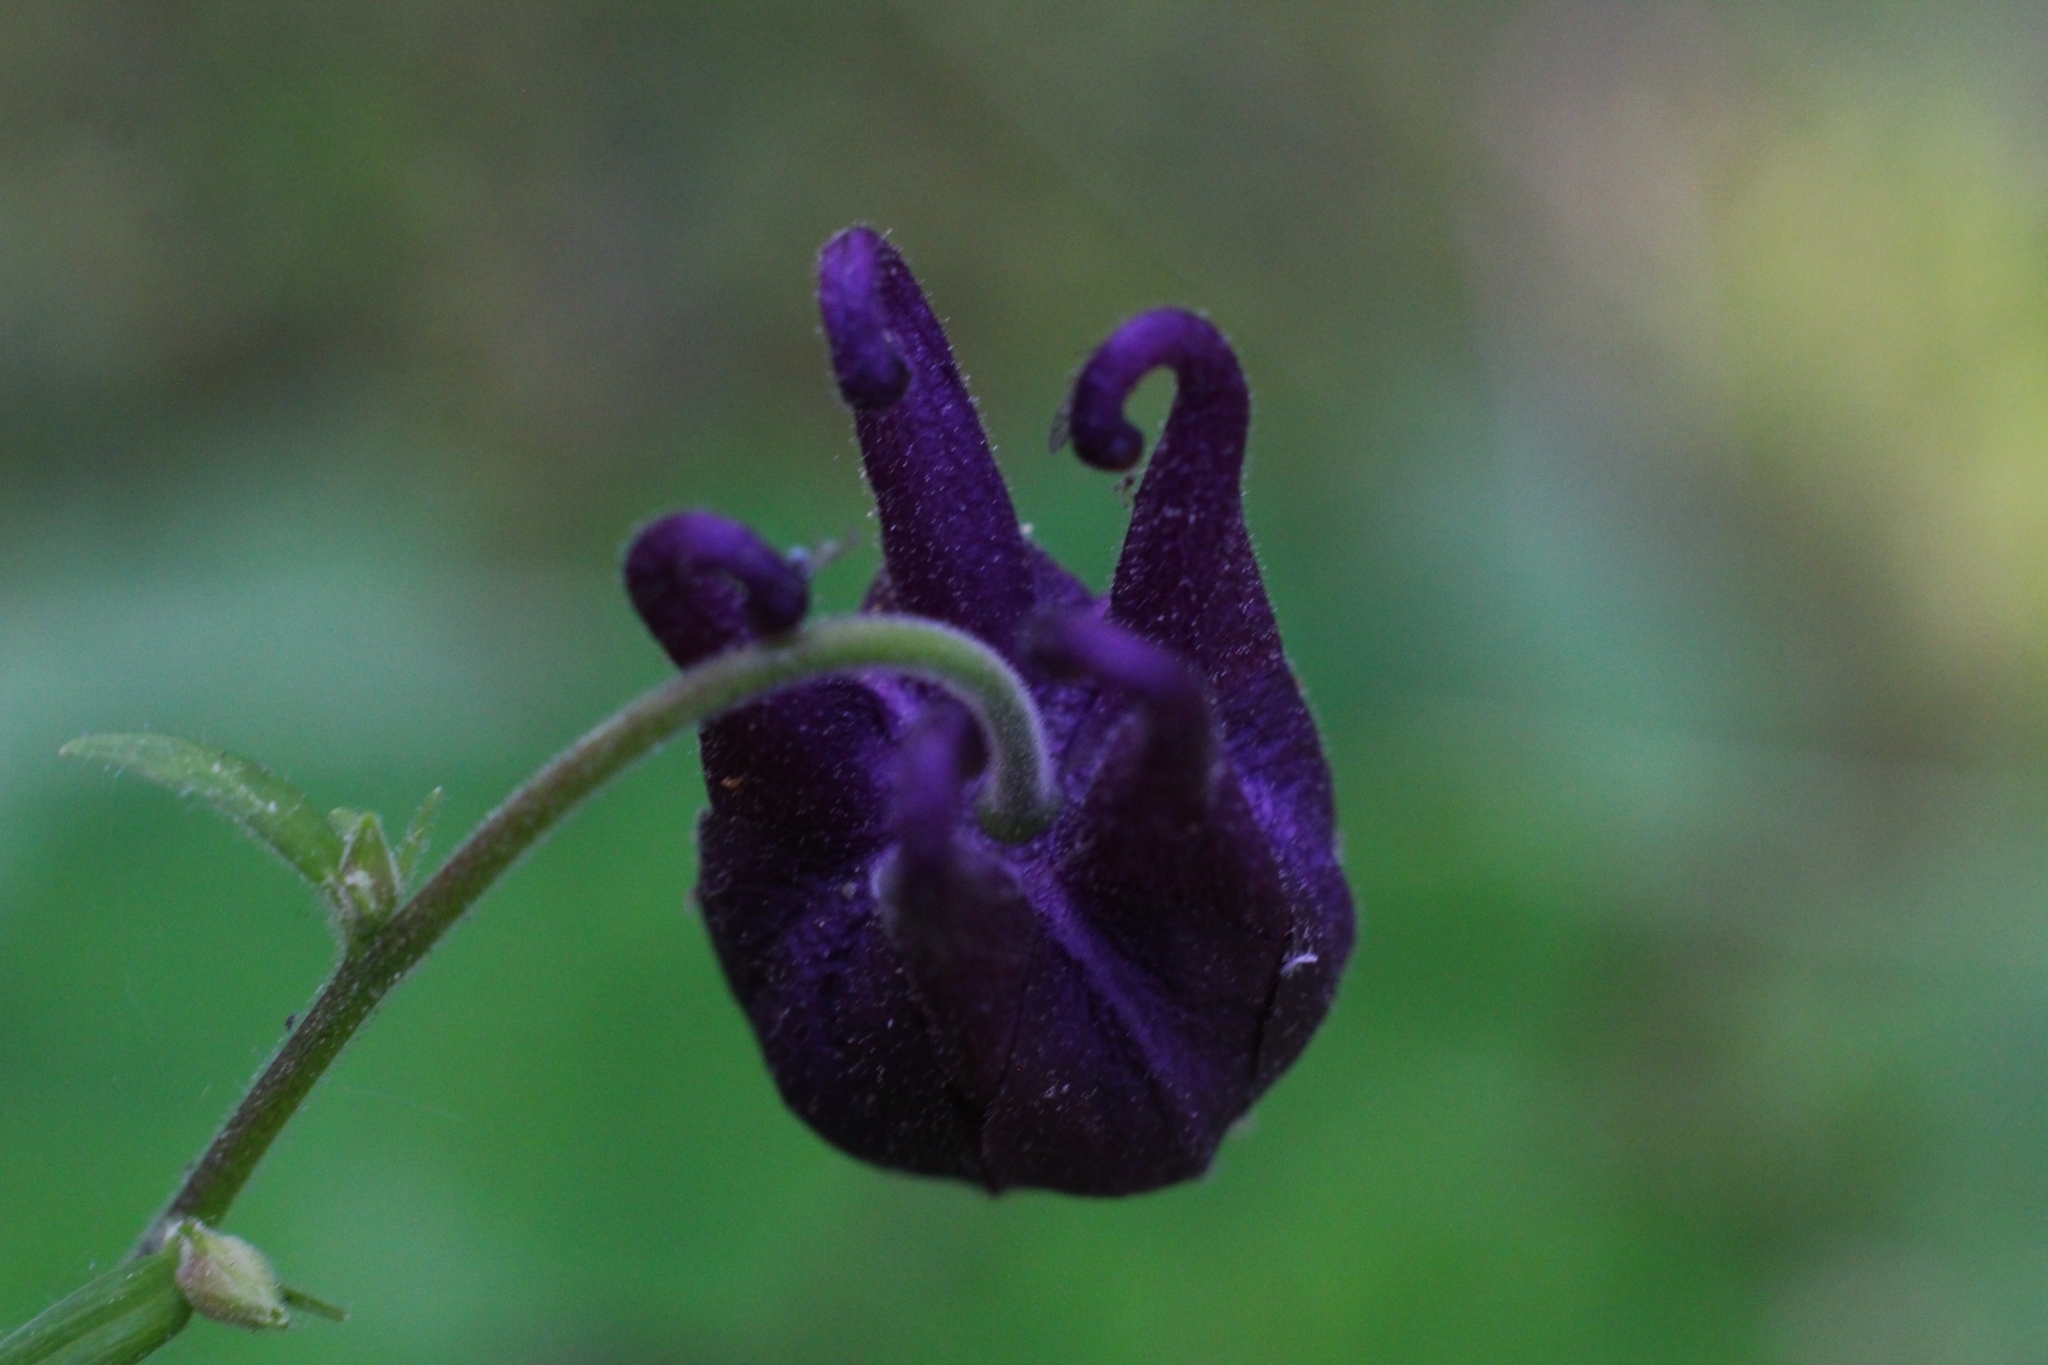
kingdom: Plantae
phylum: Tracheophyta
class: Magnoliopsida
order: Ranunculales
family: Ranunculaceae
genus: Aquilegia
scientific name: Aquilegia atrata
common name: Dark columbine
